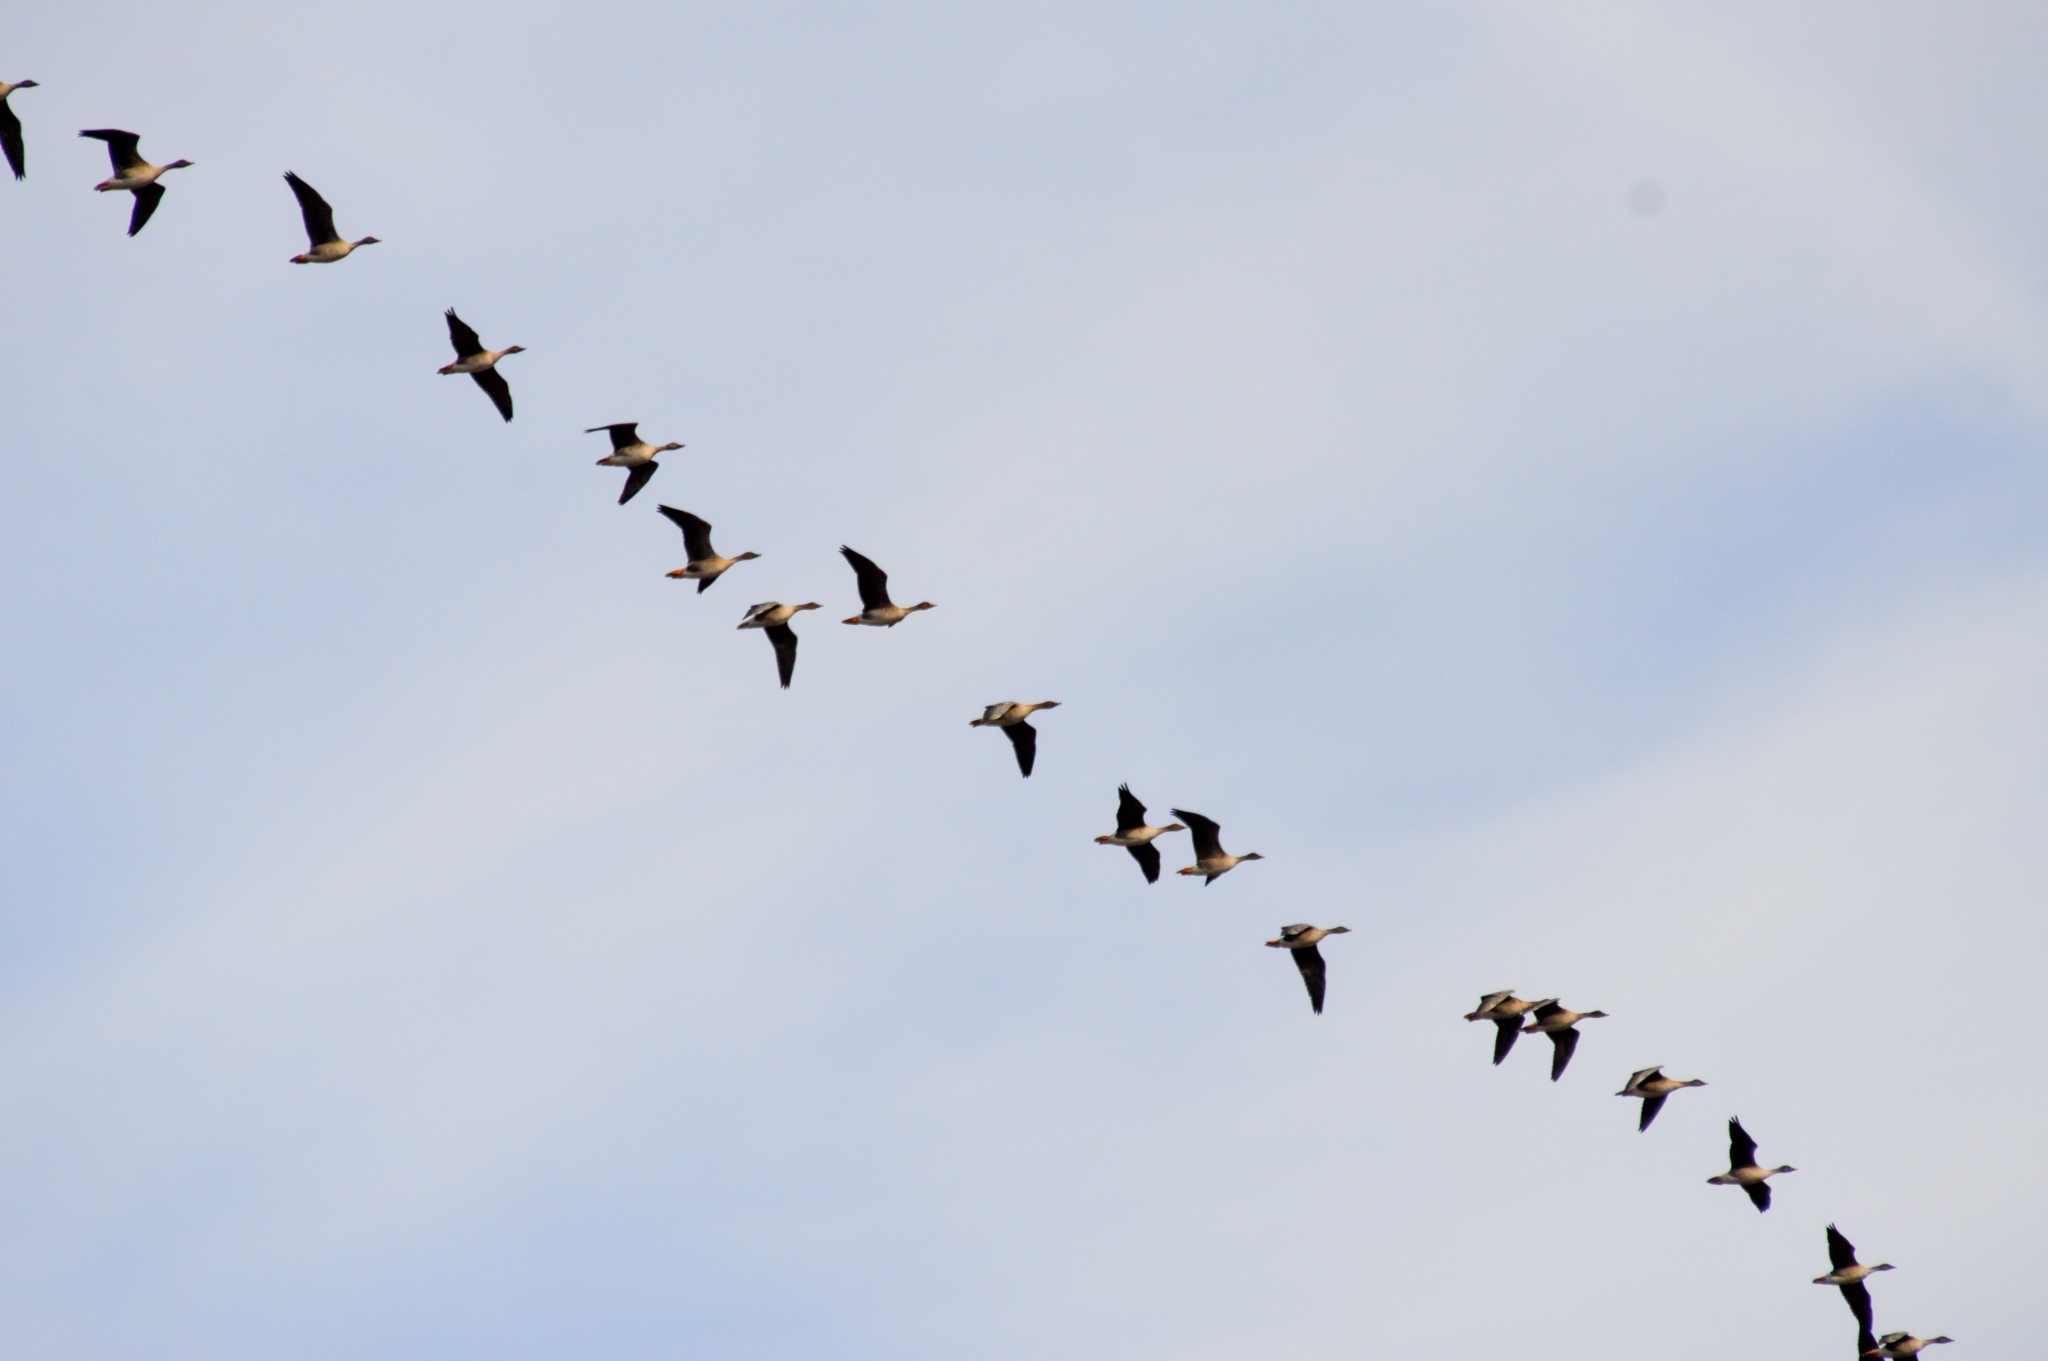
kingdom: Animalia
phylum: Chordata
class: Aves
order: Anseriformes
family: Anatidae
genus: Anser
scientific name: Anser fabalis
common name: Bean goose
